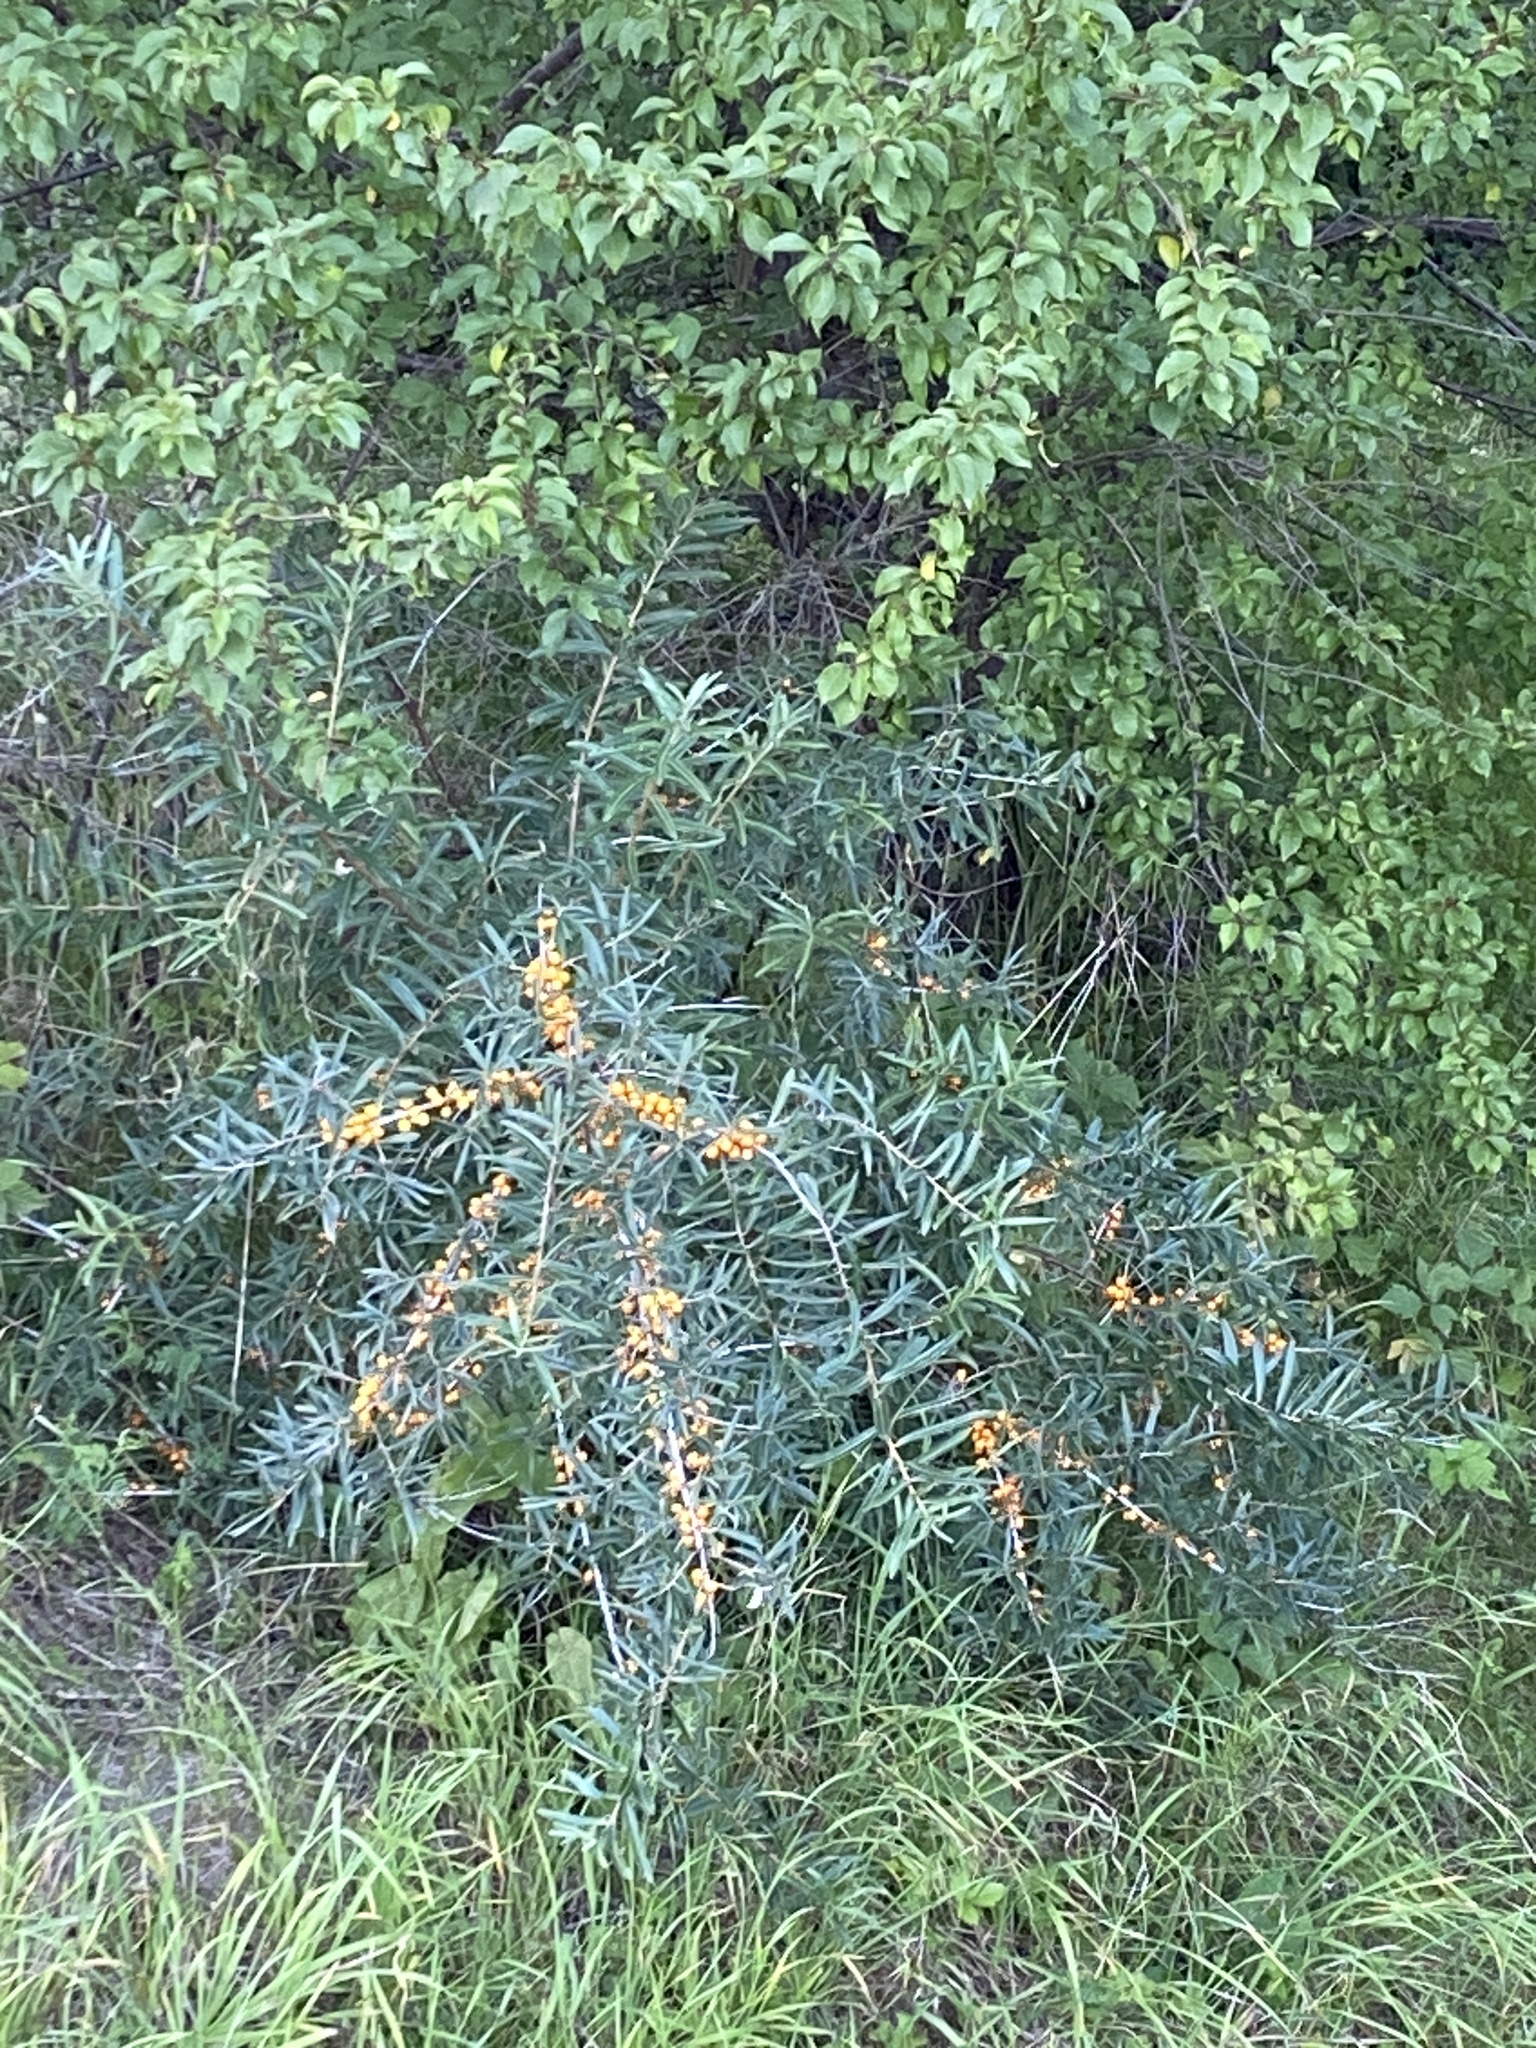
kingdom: Plantae
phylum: Tracheophyta
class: Magnoliopsida
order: Rosales
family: Elaeagnaceae
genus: Hippophae
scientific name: Hippophae rhamnoides
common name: Sea-buckthorn
